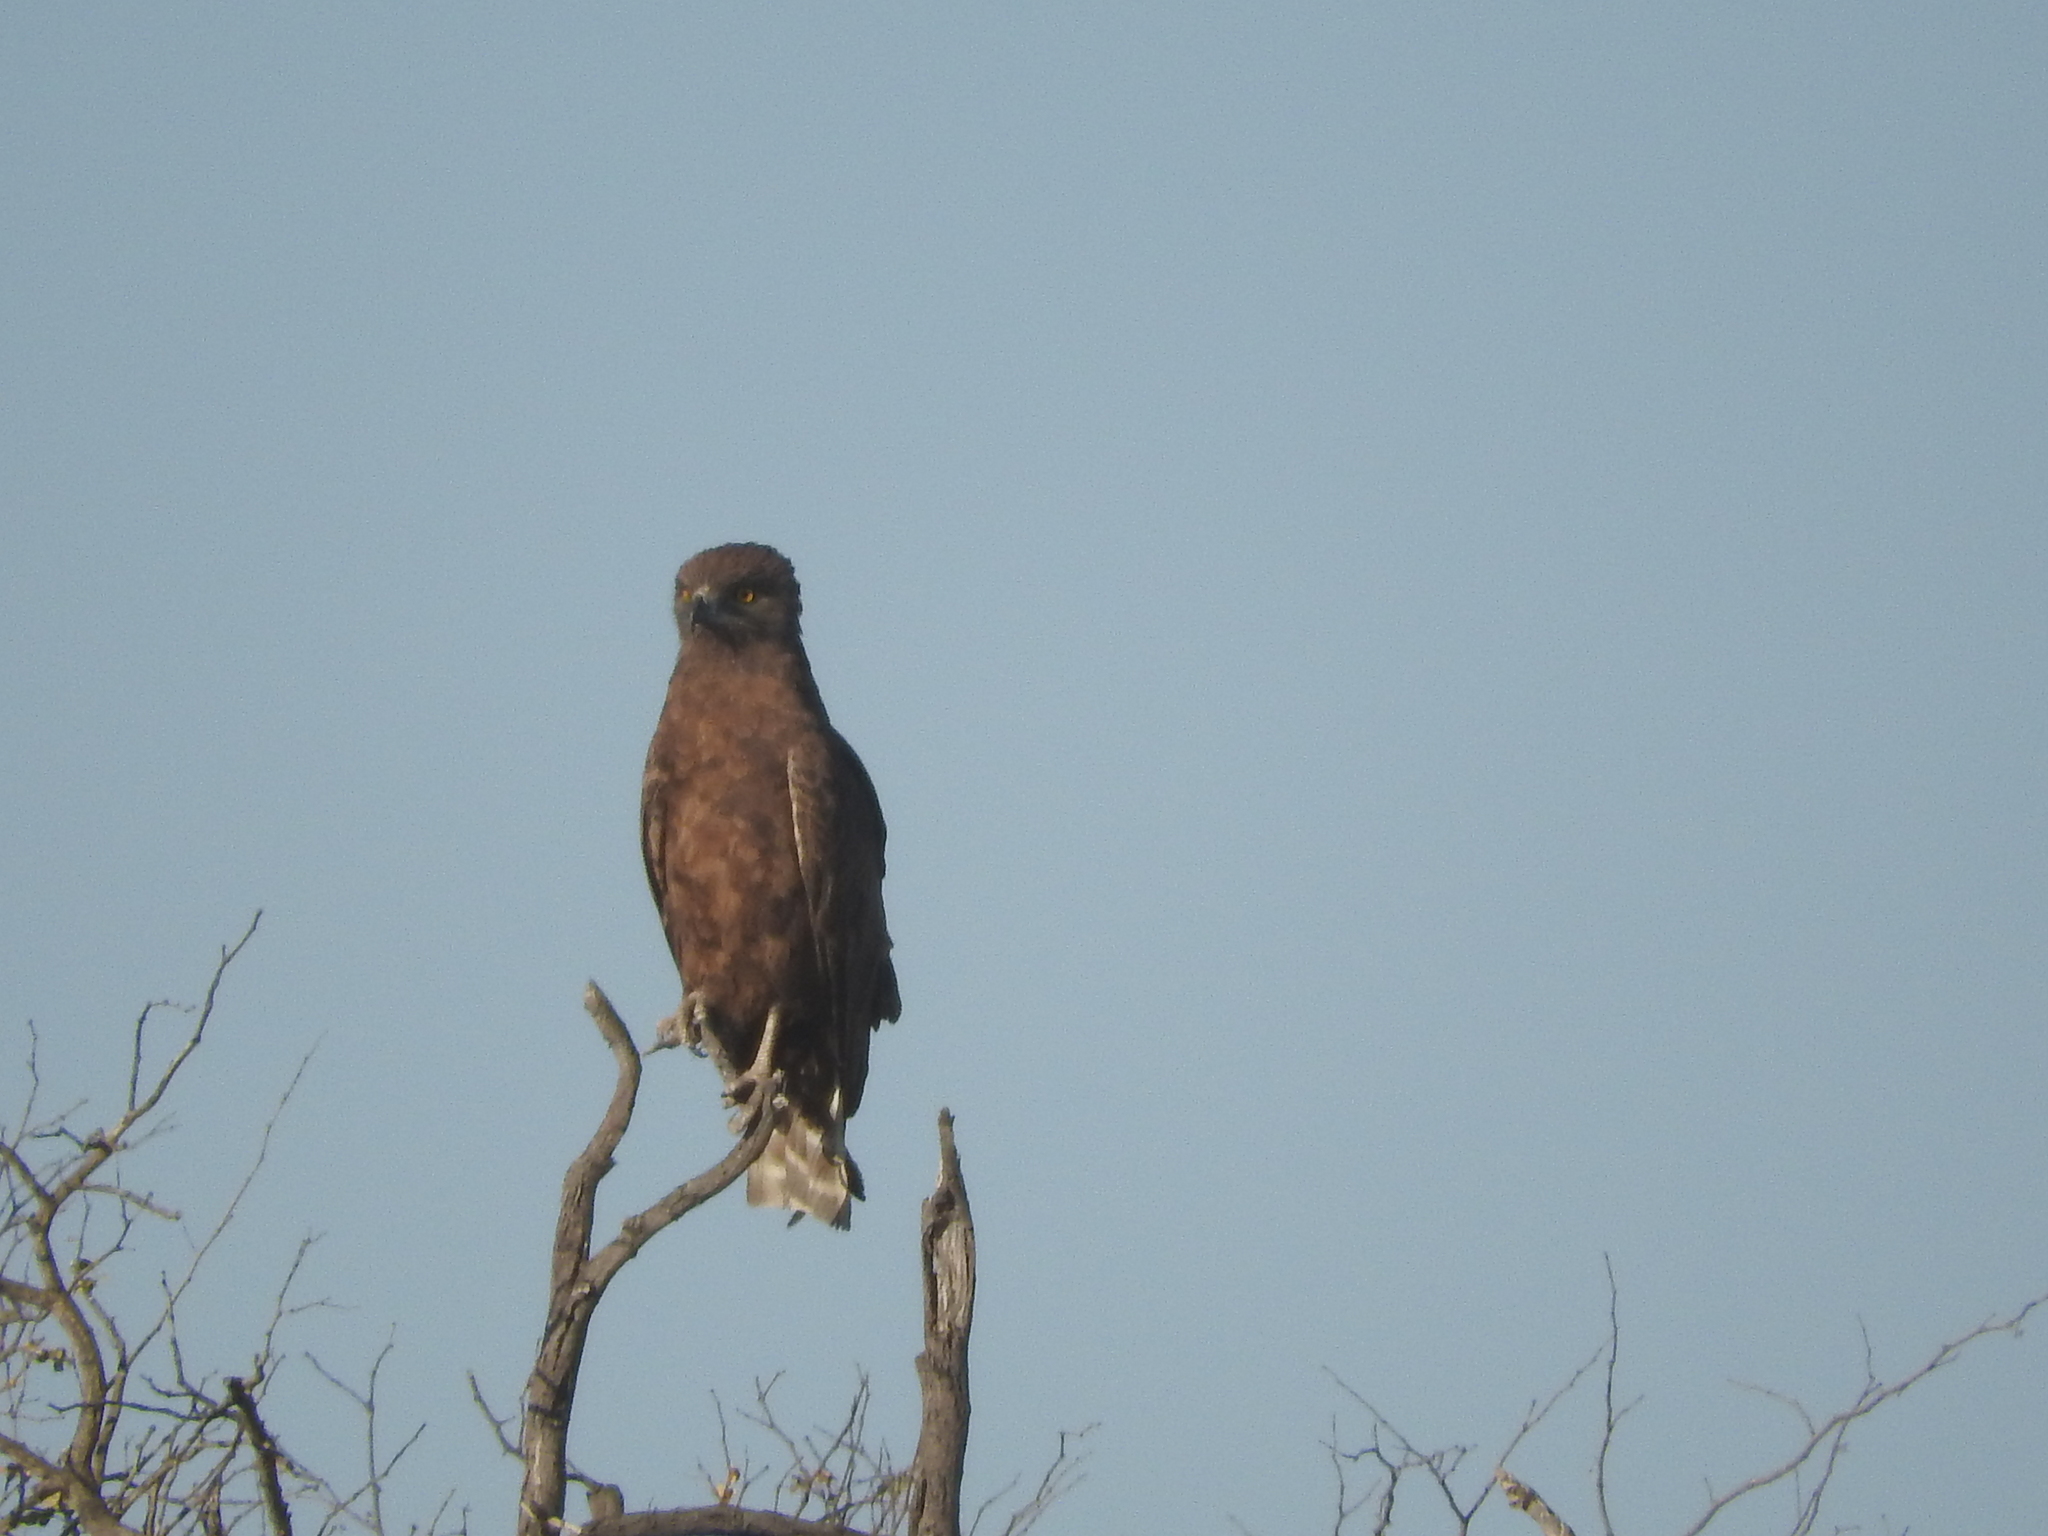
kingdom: Animalia
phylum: Chordata
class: Aves
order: Accipitriformes
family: Accipitridae
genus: Circaetus
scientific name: Circaetus cinereus
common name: Brown snake eagle
